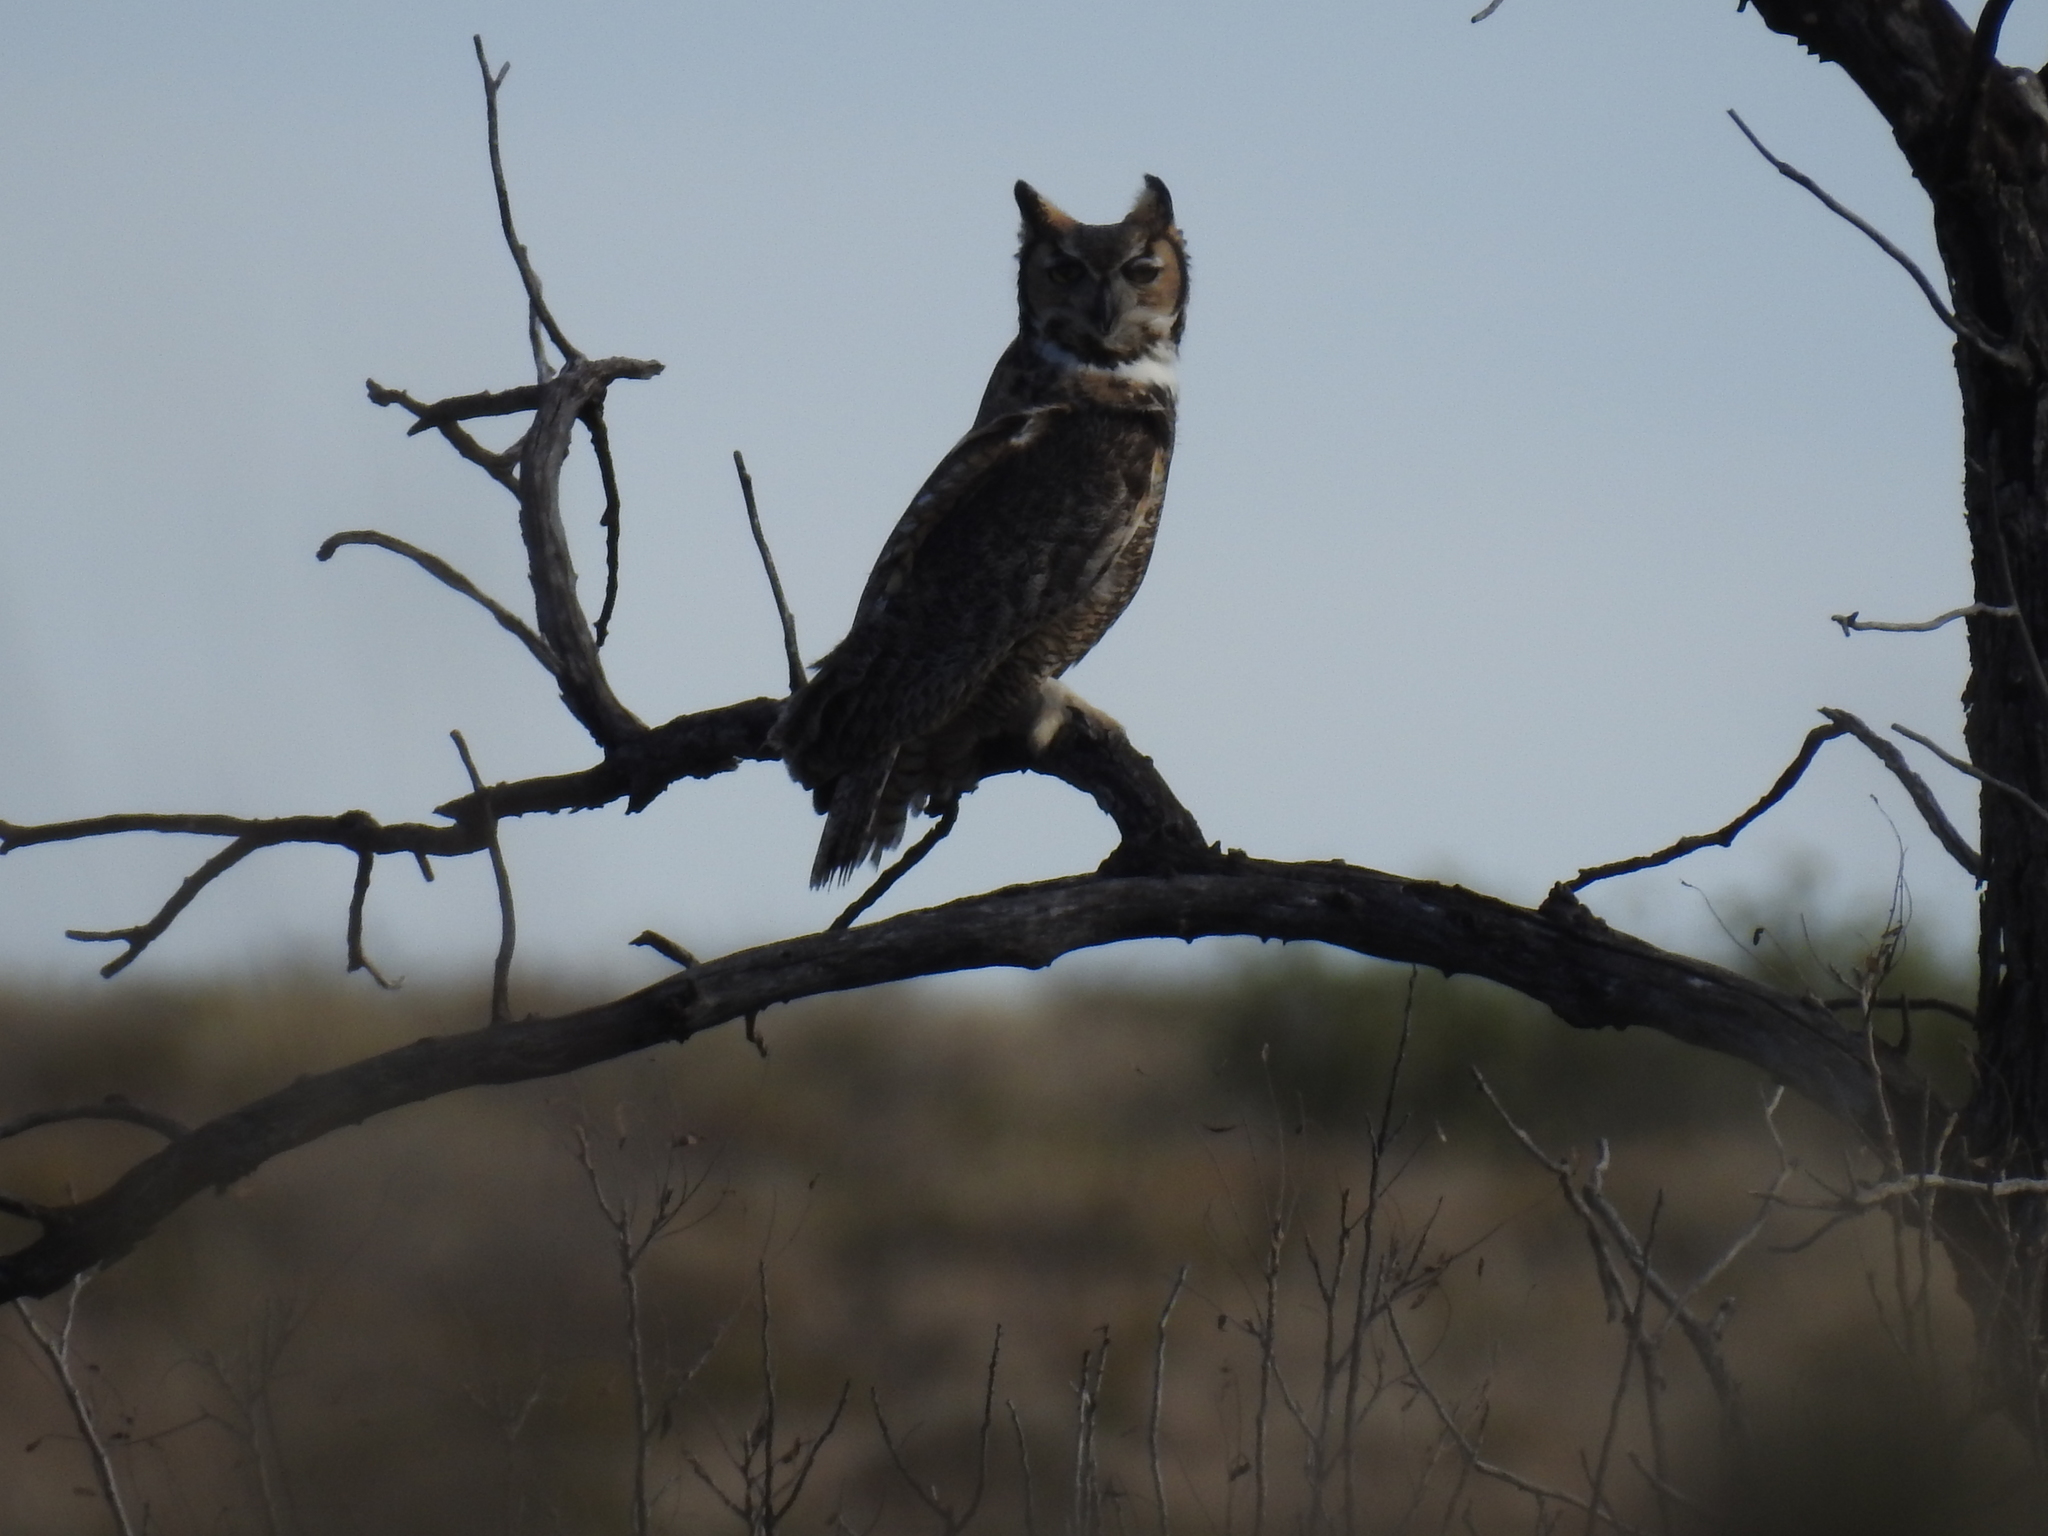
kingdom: Animalia
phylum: Chordata
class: Aves
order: Strigiformes
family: Strigidae
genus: Bubo
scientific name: Bubo virginianus
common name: Great horned owl
